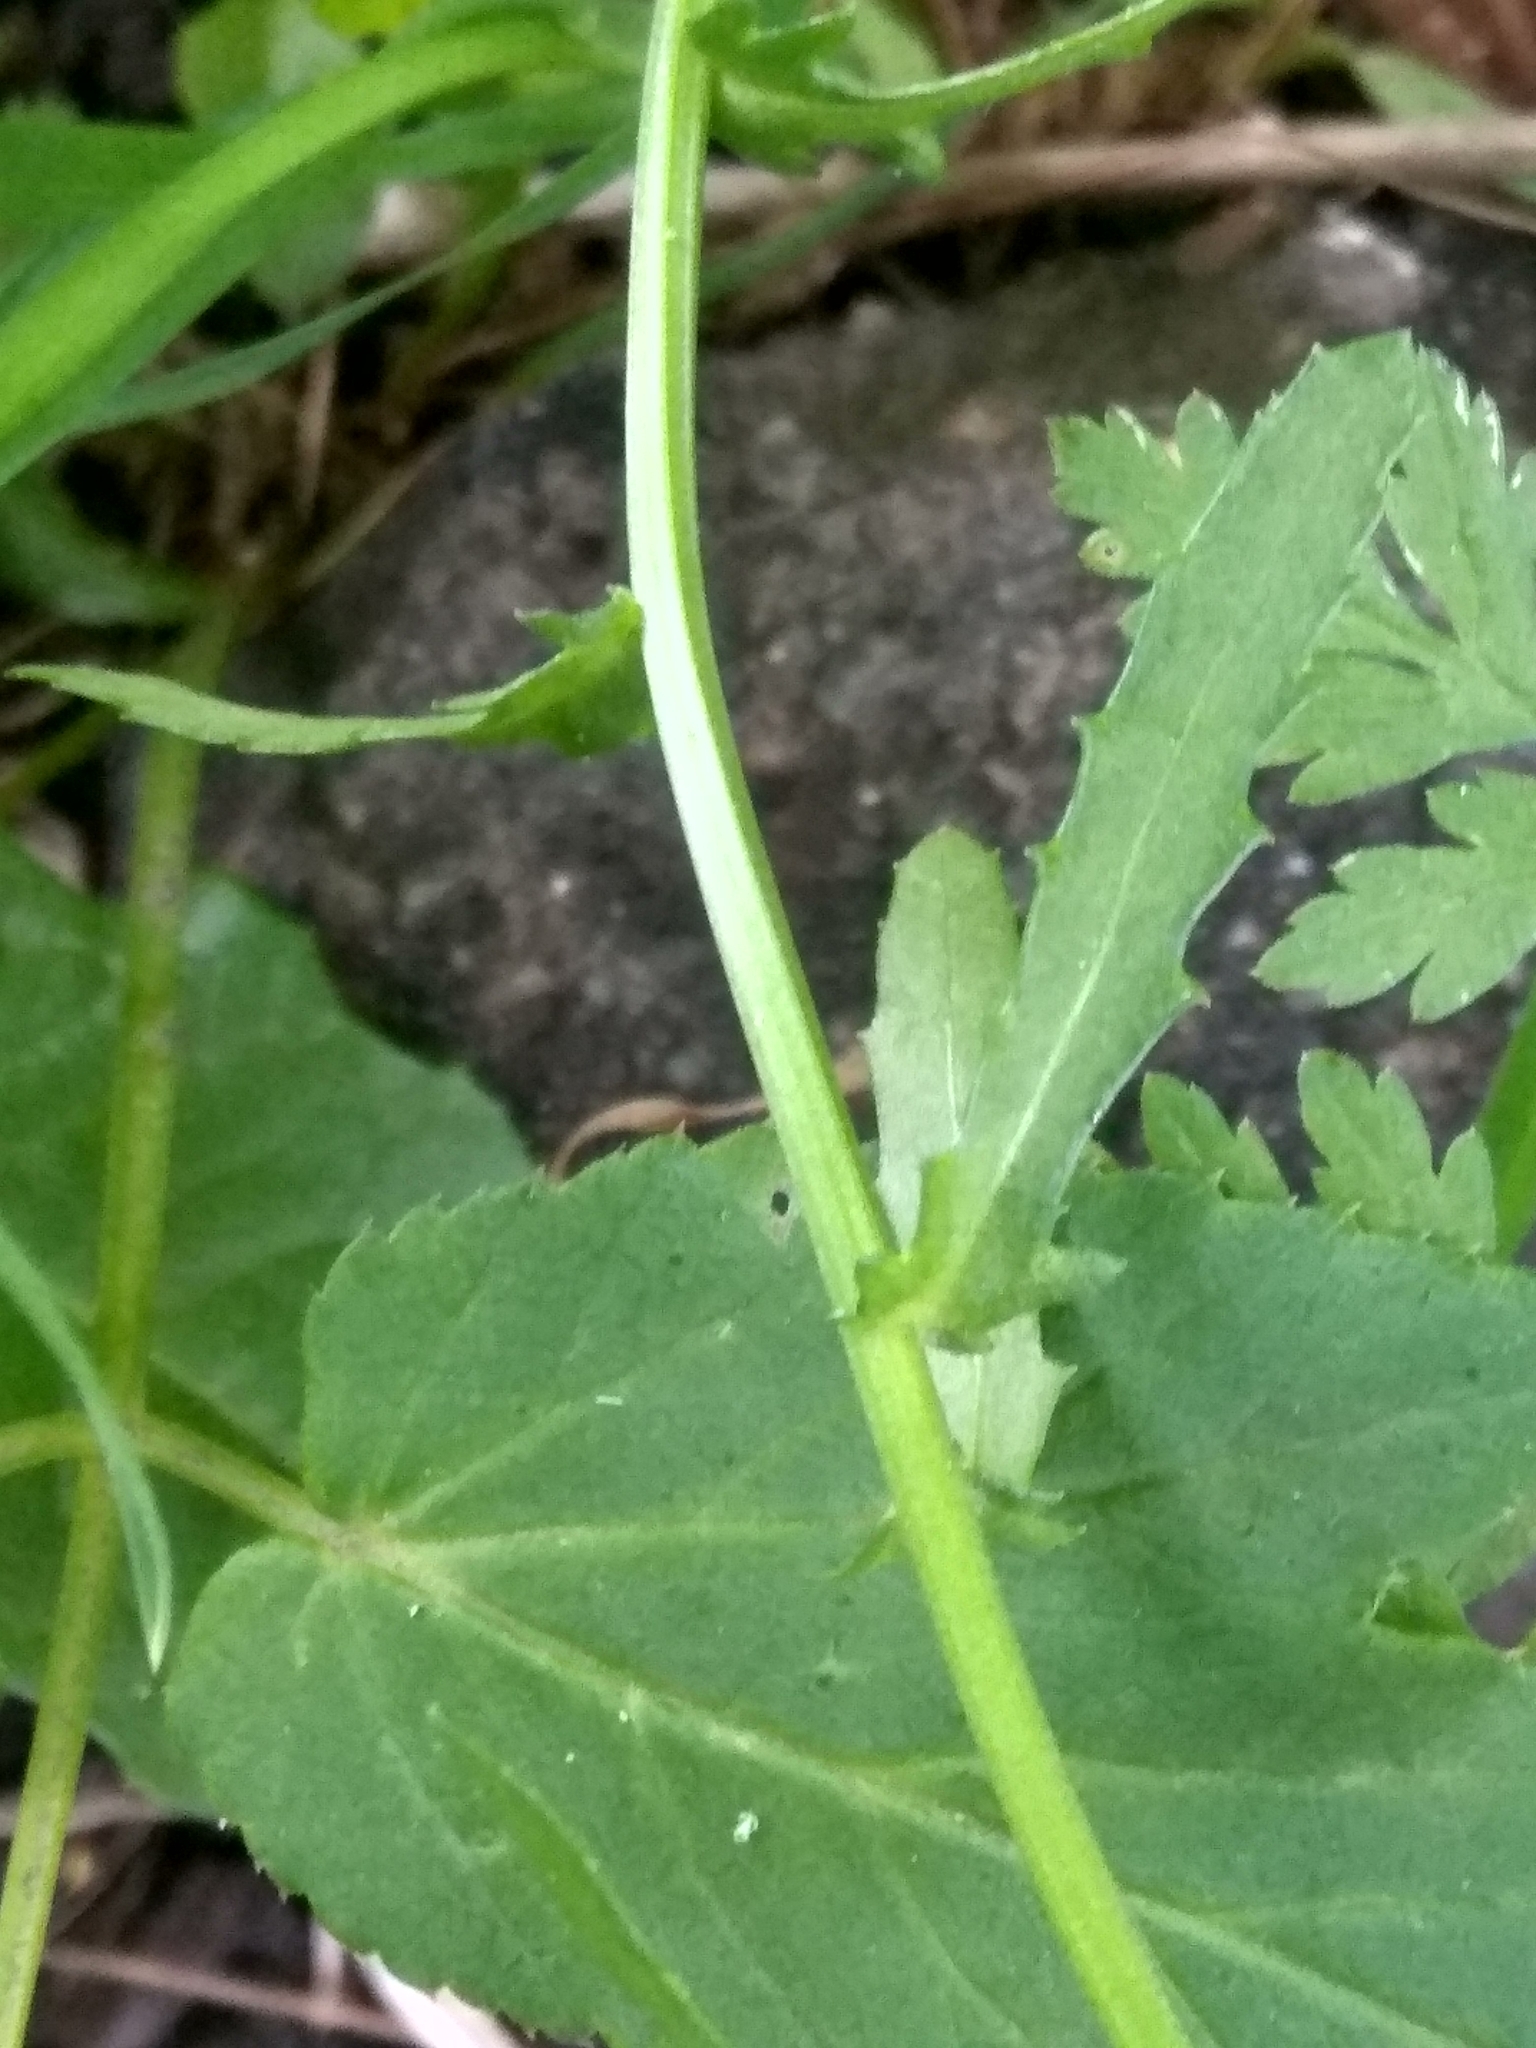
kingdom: Plantae
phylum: Tracheophyta
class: Magnoliopsida
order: Asterales
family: Asteraceae
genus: Leucanthemum
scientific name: Leucanthemum vulgare
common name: Oxeye daisy
